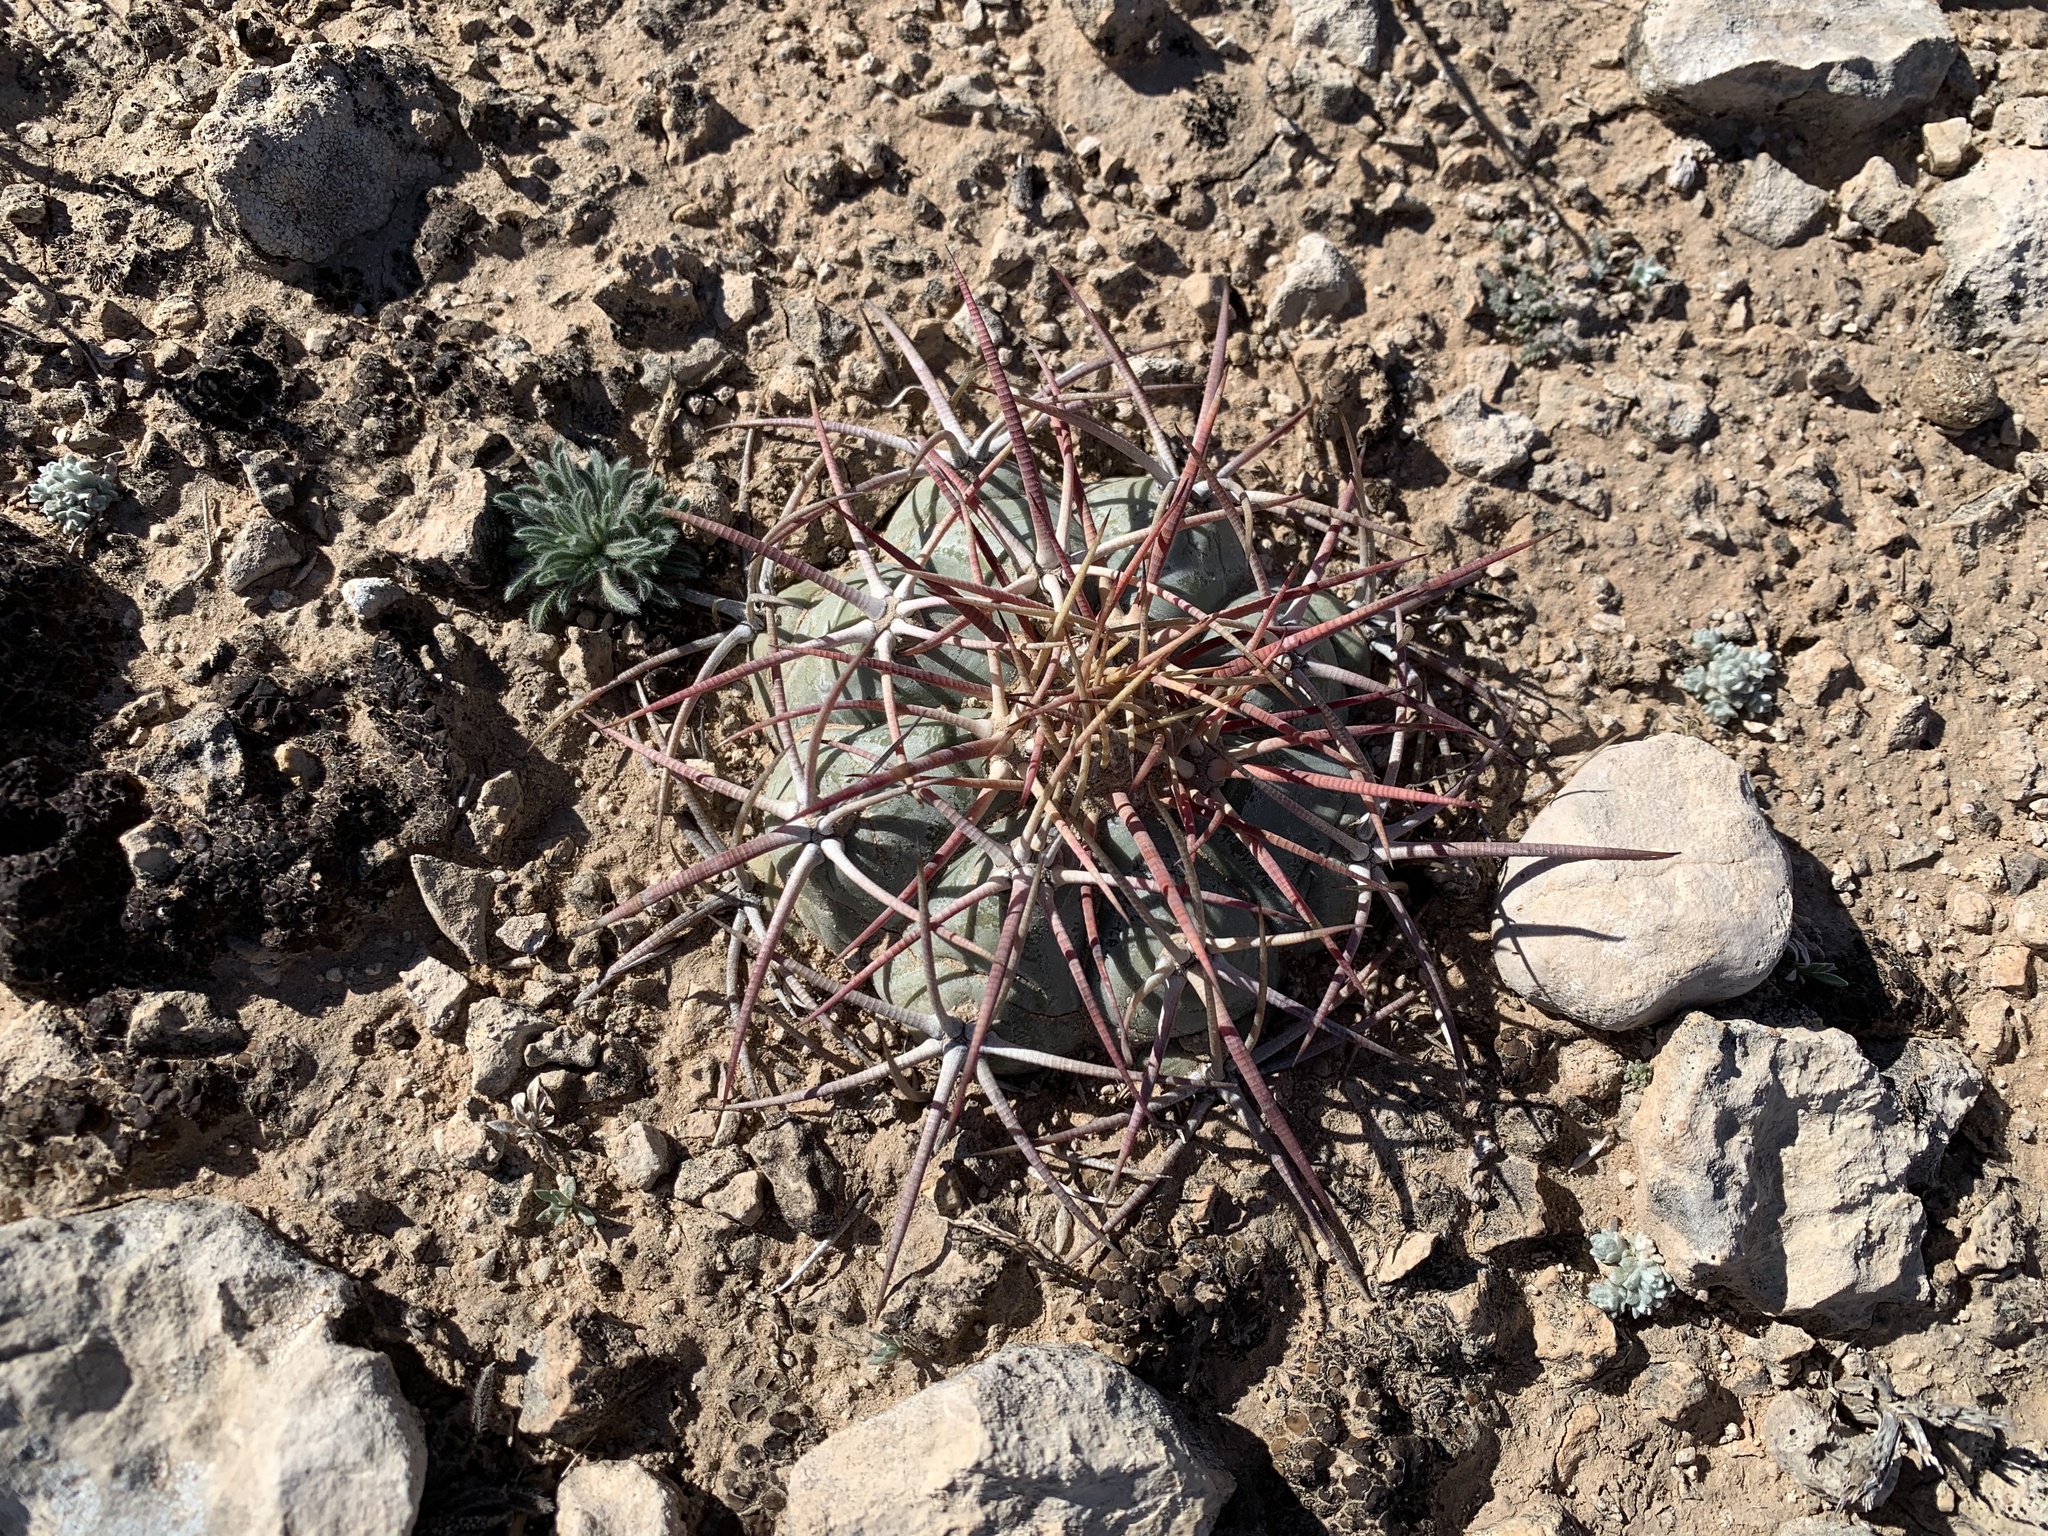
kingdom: Plantae
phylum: Tracheophyta
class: Magnoliopsida
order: Caryophyllales
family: Cactaceae
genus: Echinocactus
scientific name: Echinocactus horizonthalonius
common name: Devilshead
